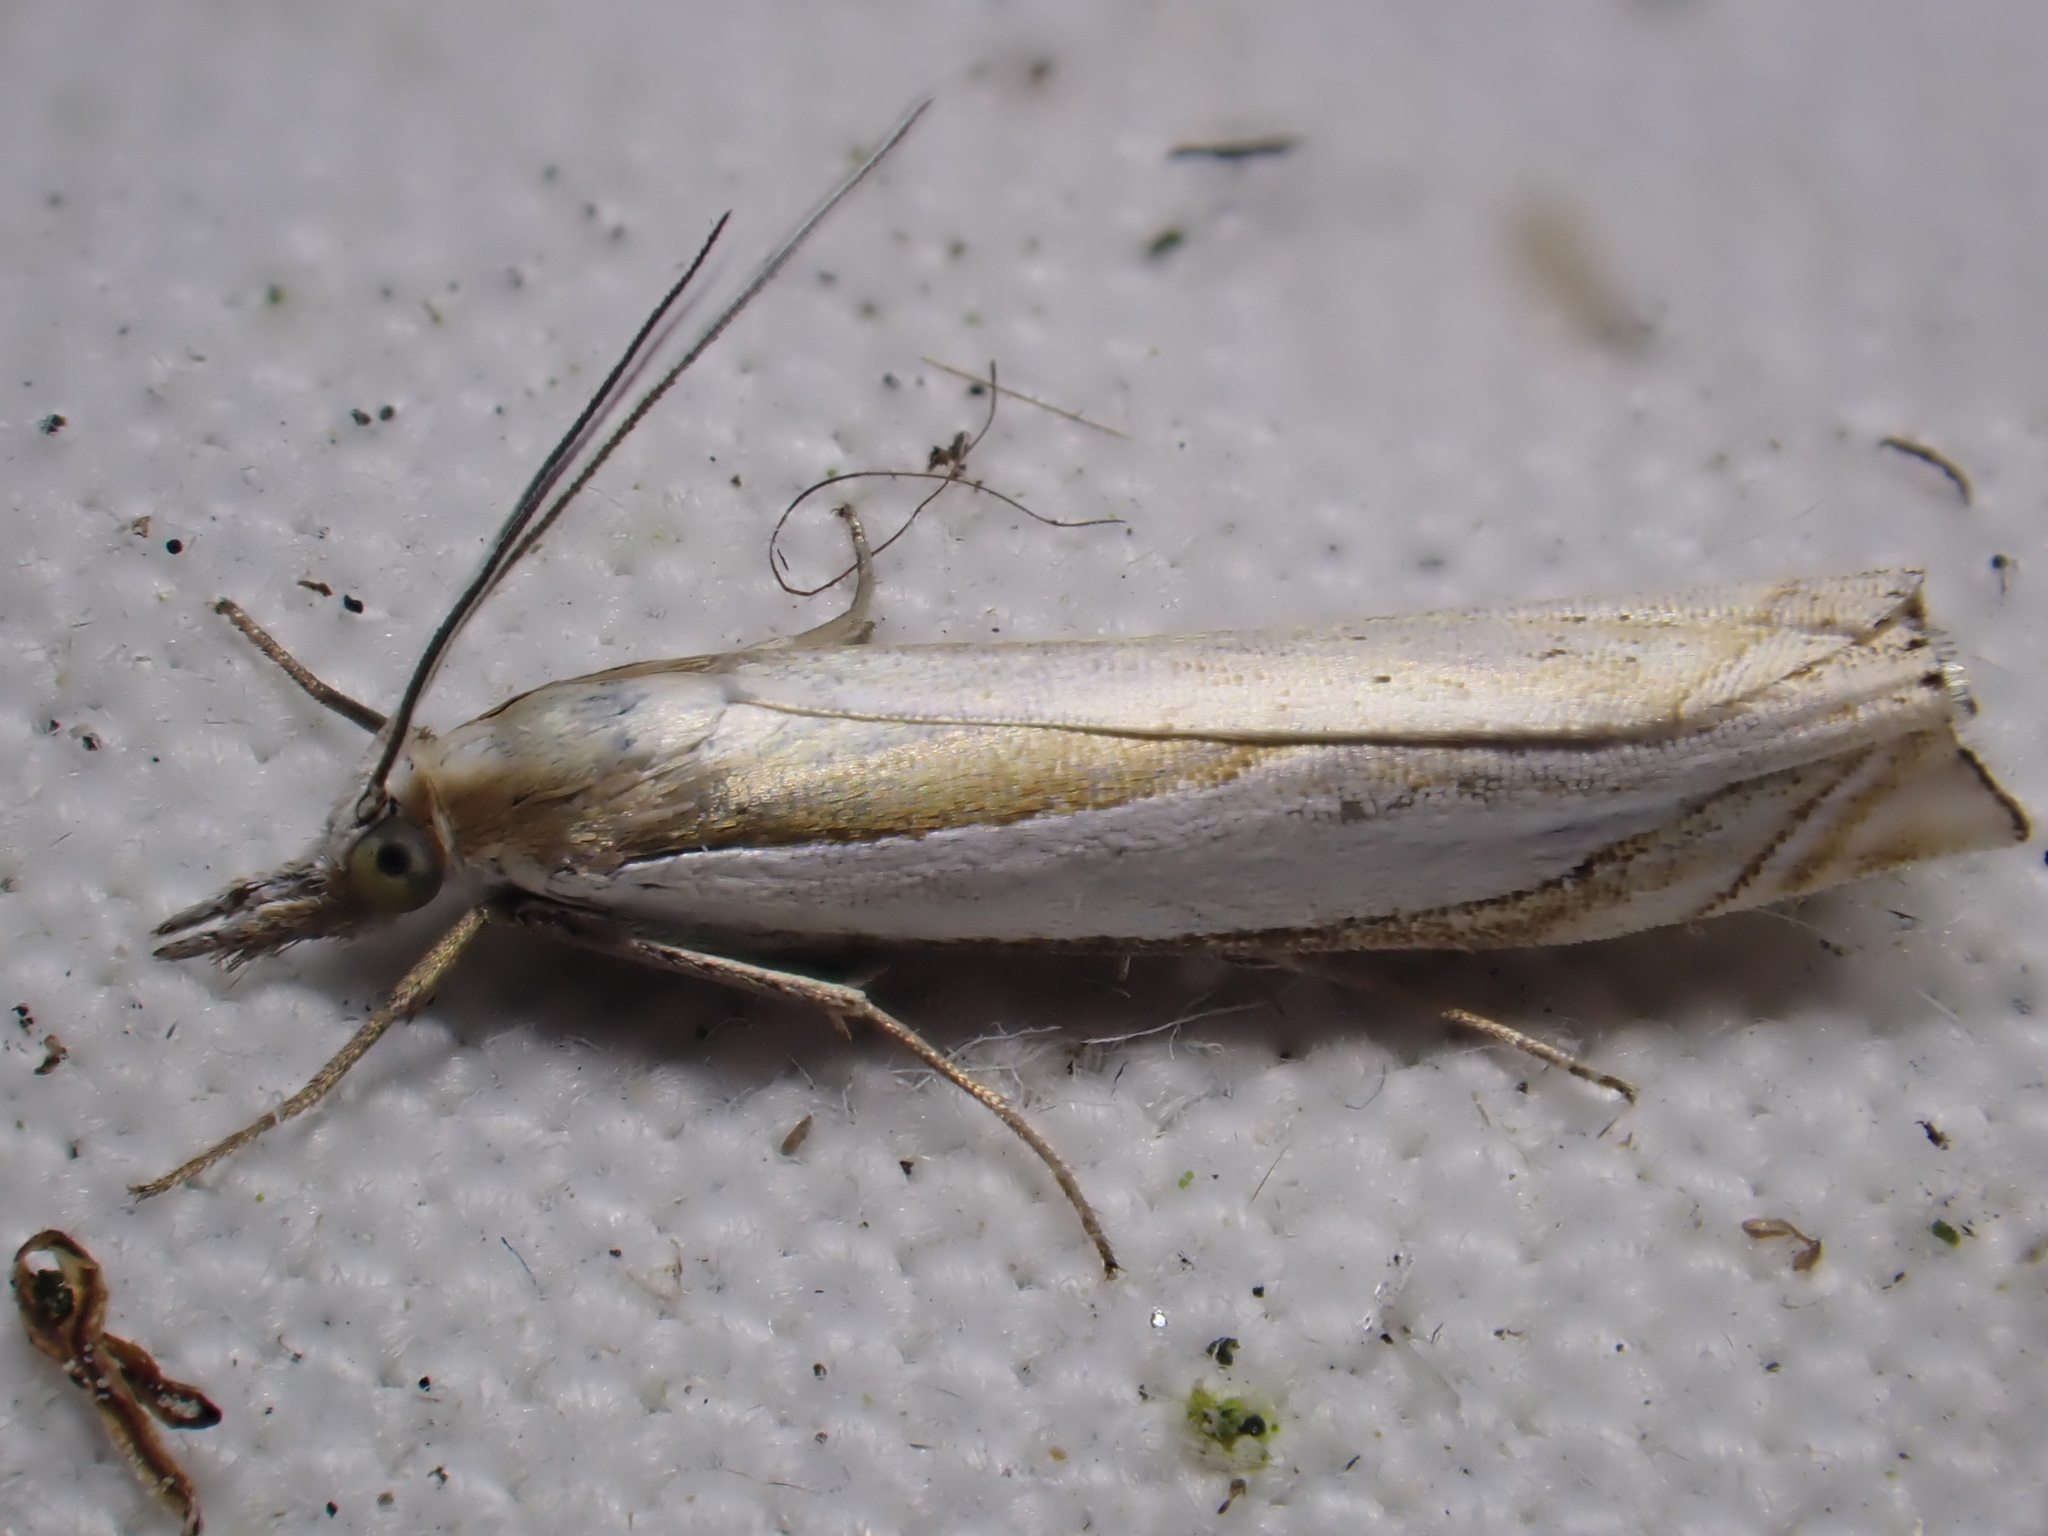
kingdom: Animalia
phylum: Arthropoda
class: Insecta
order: Lepidoptera
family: Crambidae
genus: Crambus
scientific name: Crambus pascuella
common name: Inlaid grass-veneer
